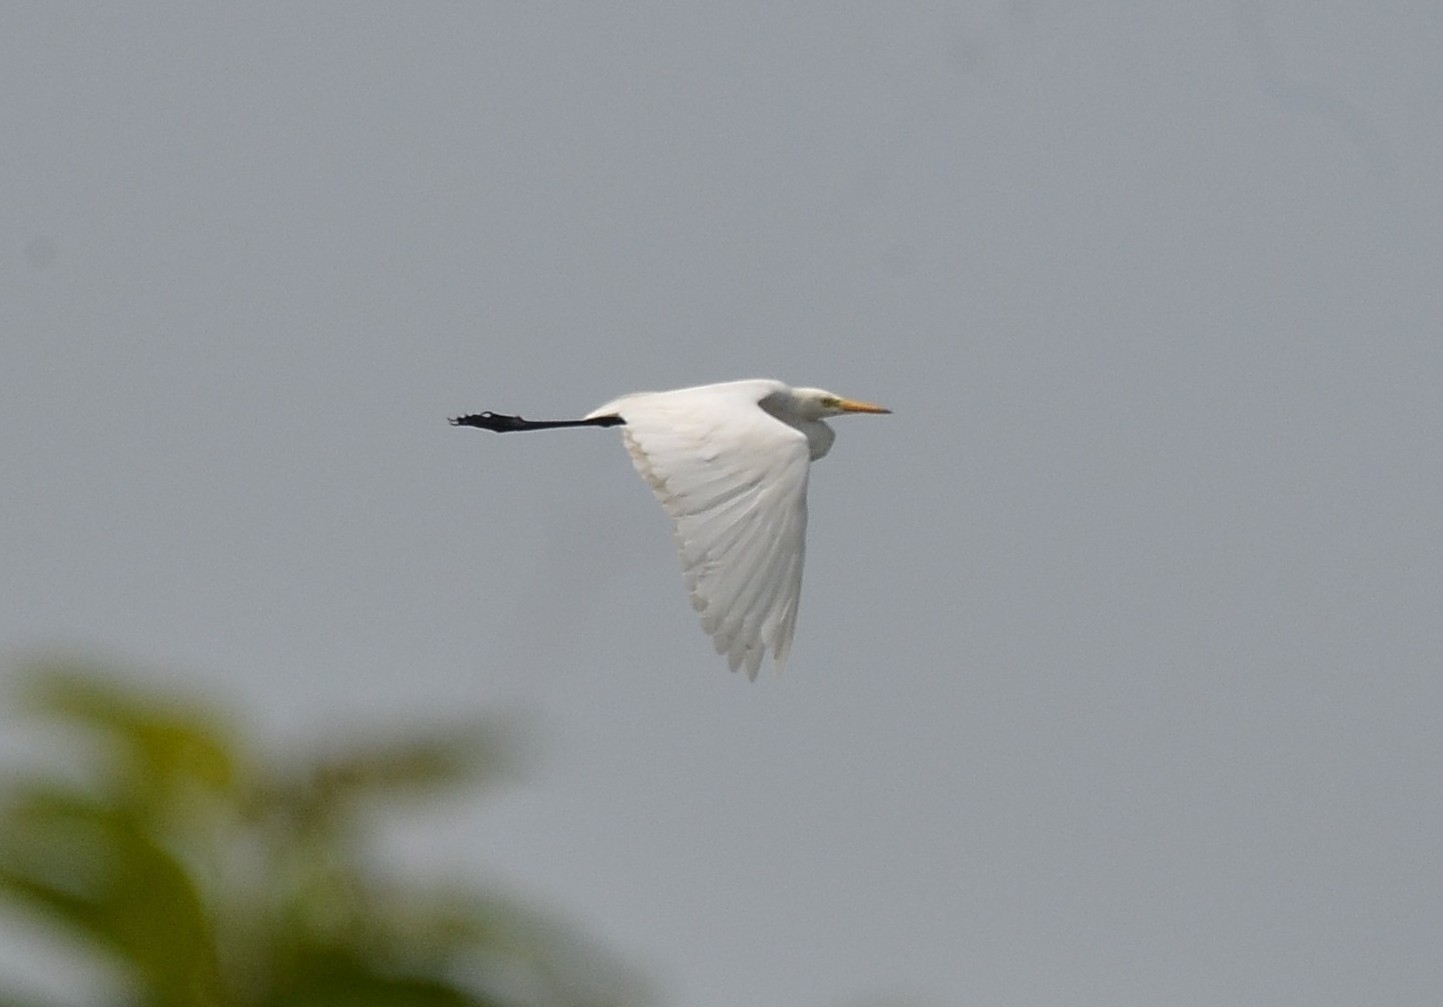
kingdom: Animalia
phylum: Chordata
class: Aves
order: Pelecaniformes
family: Ardeidae
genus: Egretta
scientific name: Egretta intermedia
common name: Intermediate egret
